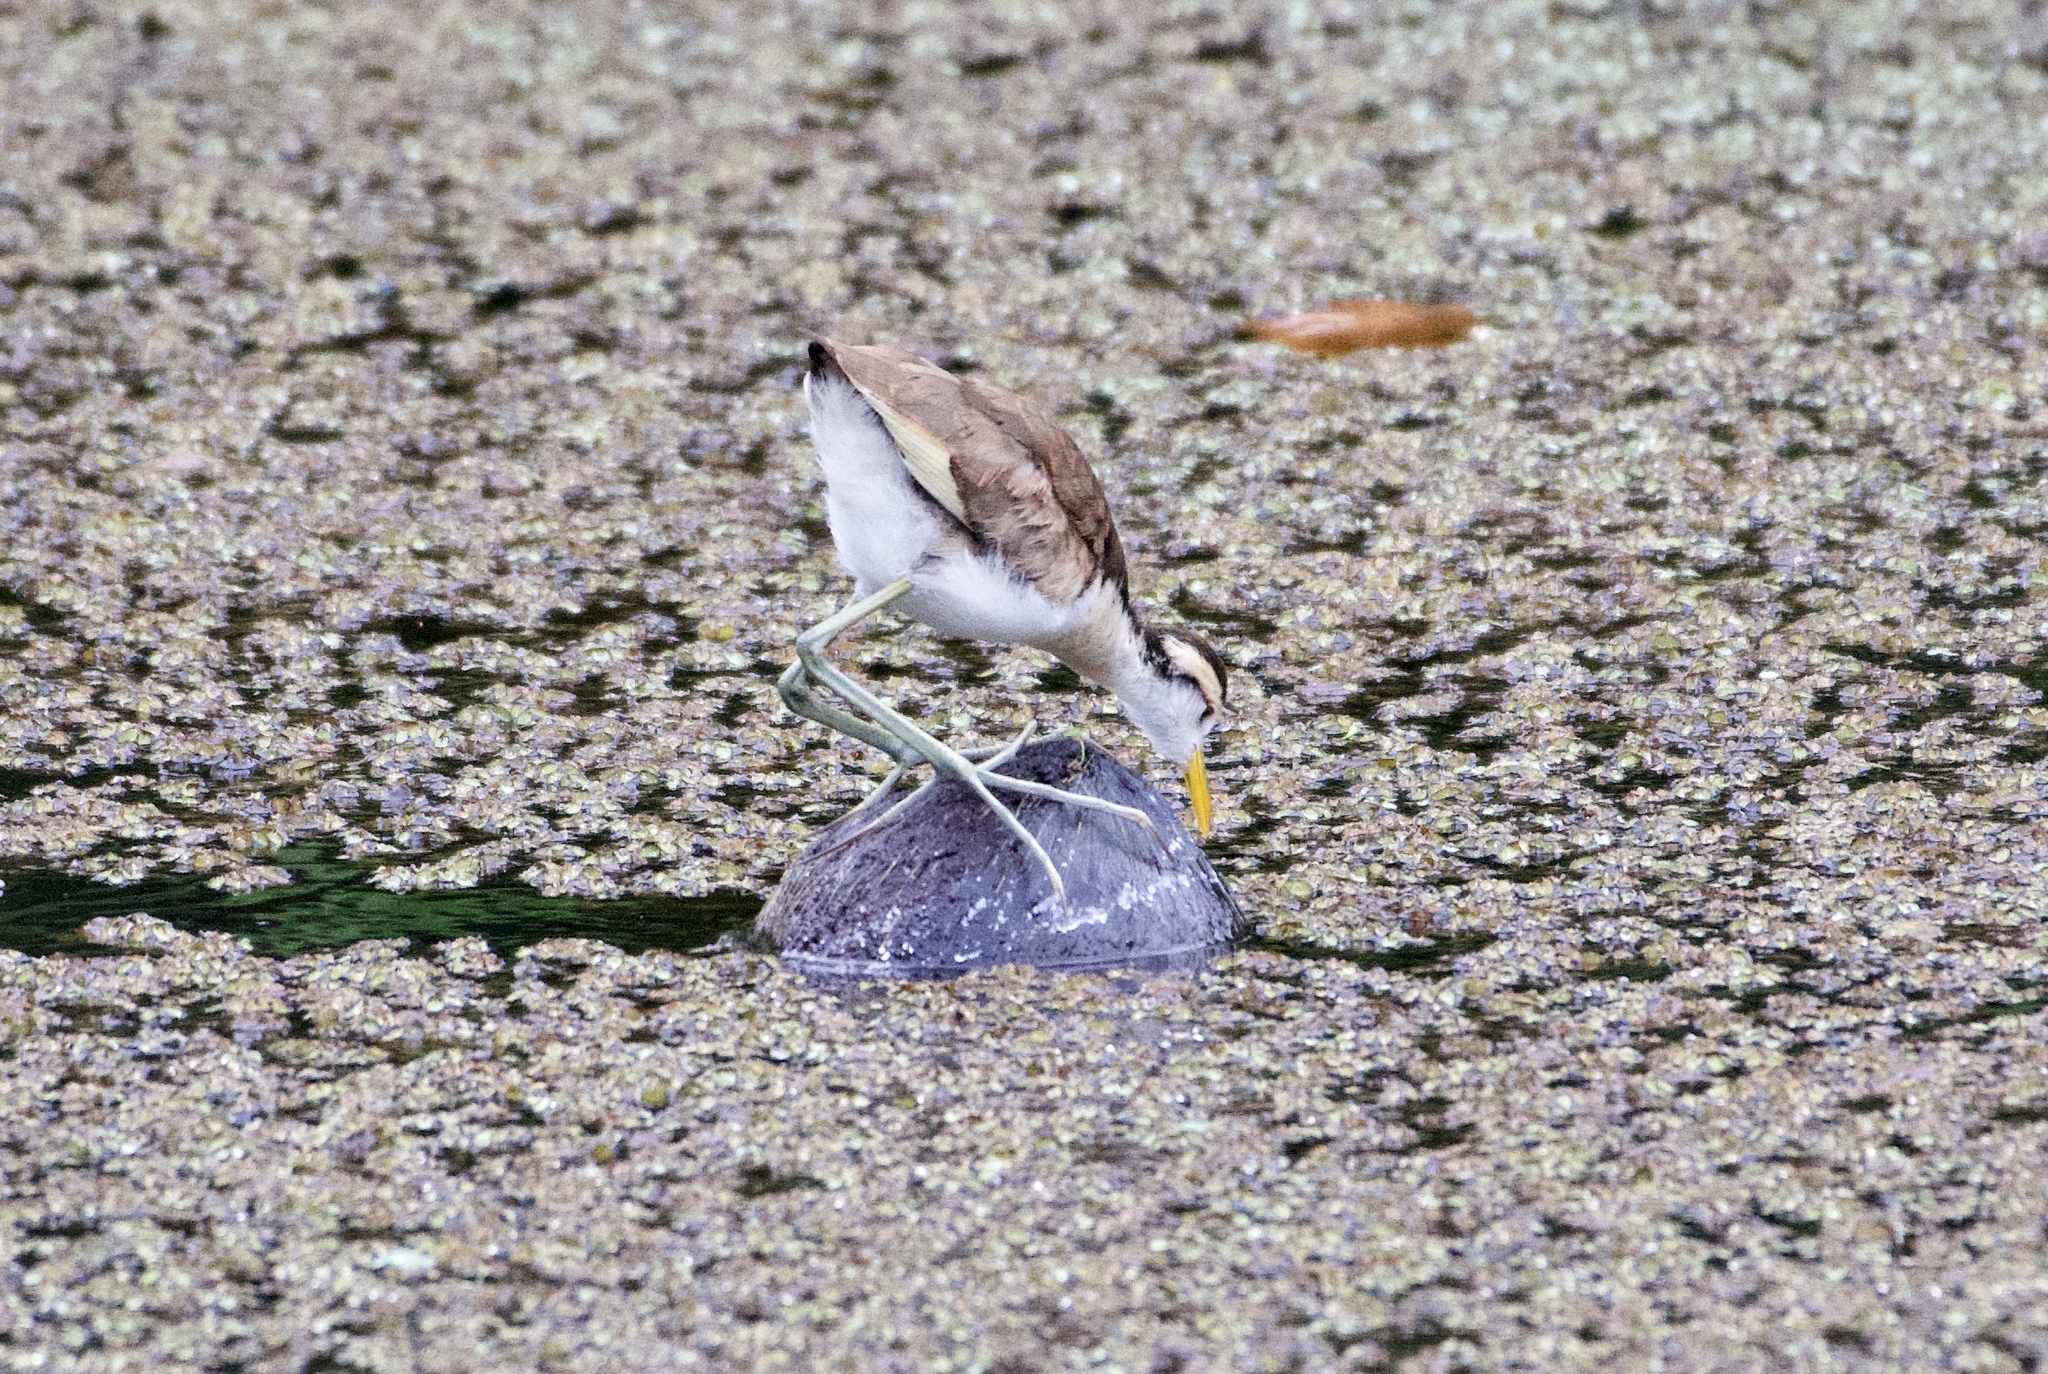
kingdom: Animalia
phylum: Chordata
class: Aves
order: Charadriiformes
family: Jacanidae
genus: Jacana
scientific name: Jacana spinosa
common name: Northern jacana
